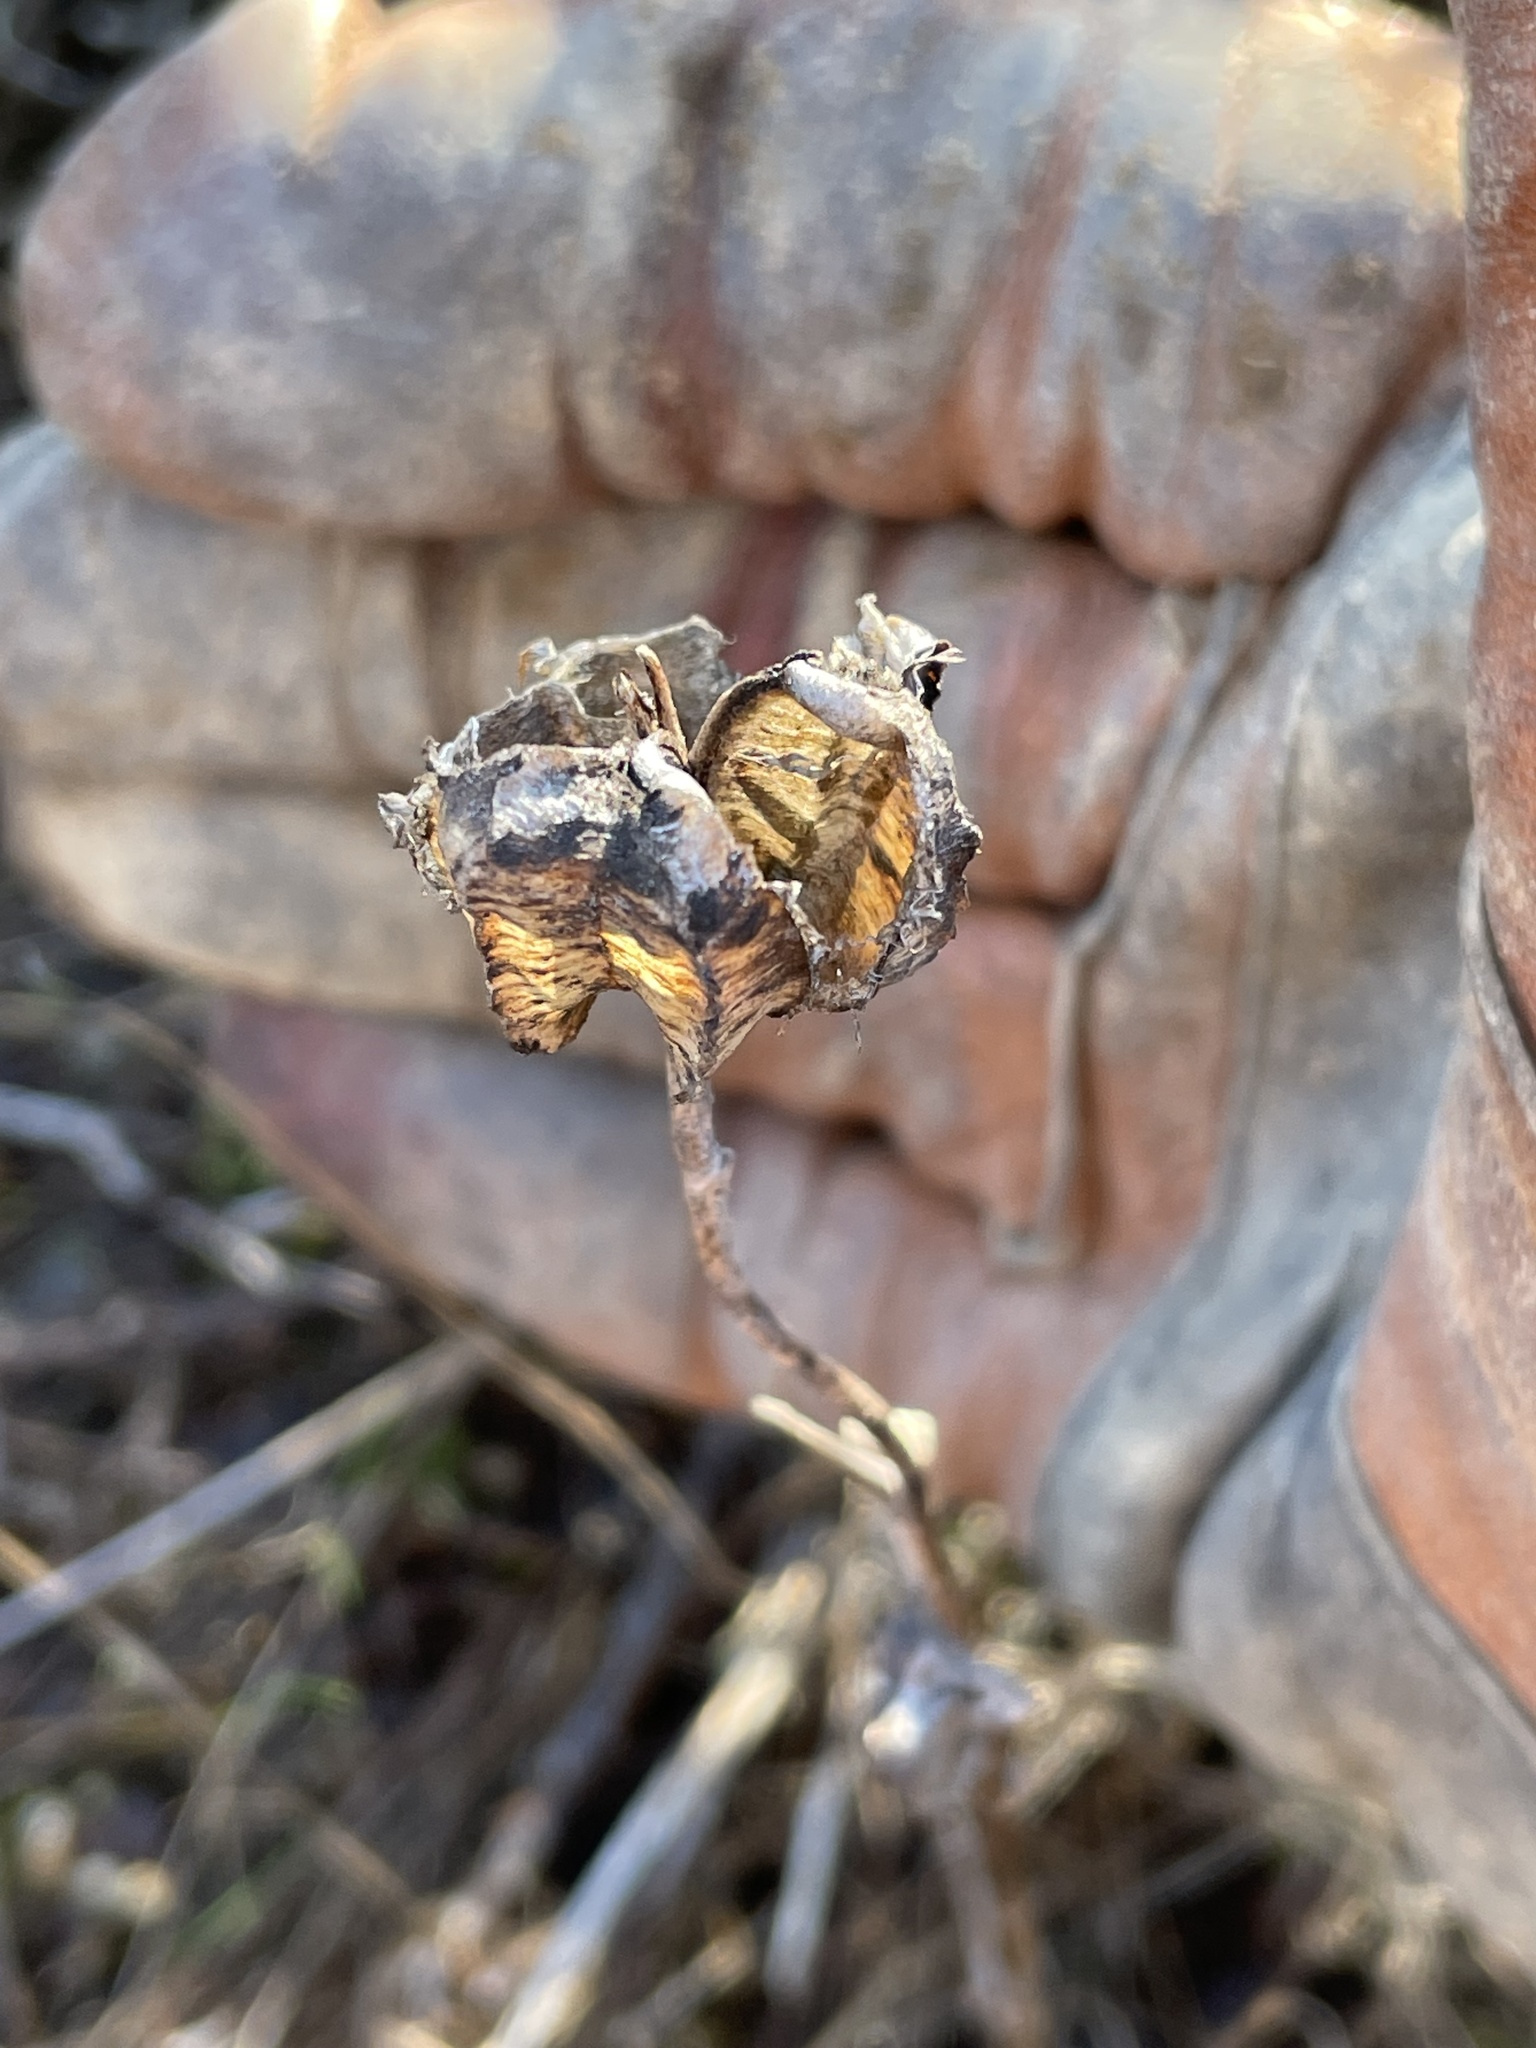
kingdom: Plantae
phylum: Tracheophyta
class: Liliopsida
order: Liliales
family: Liliaceae
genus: Fritillaria
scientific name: Fritillaria affinis
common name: Ojai fritillary
